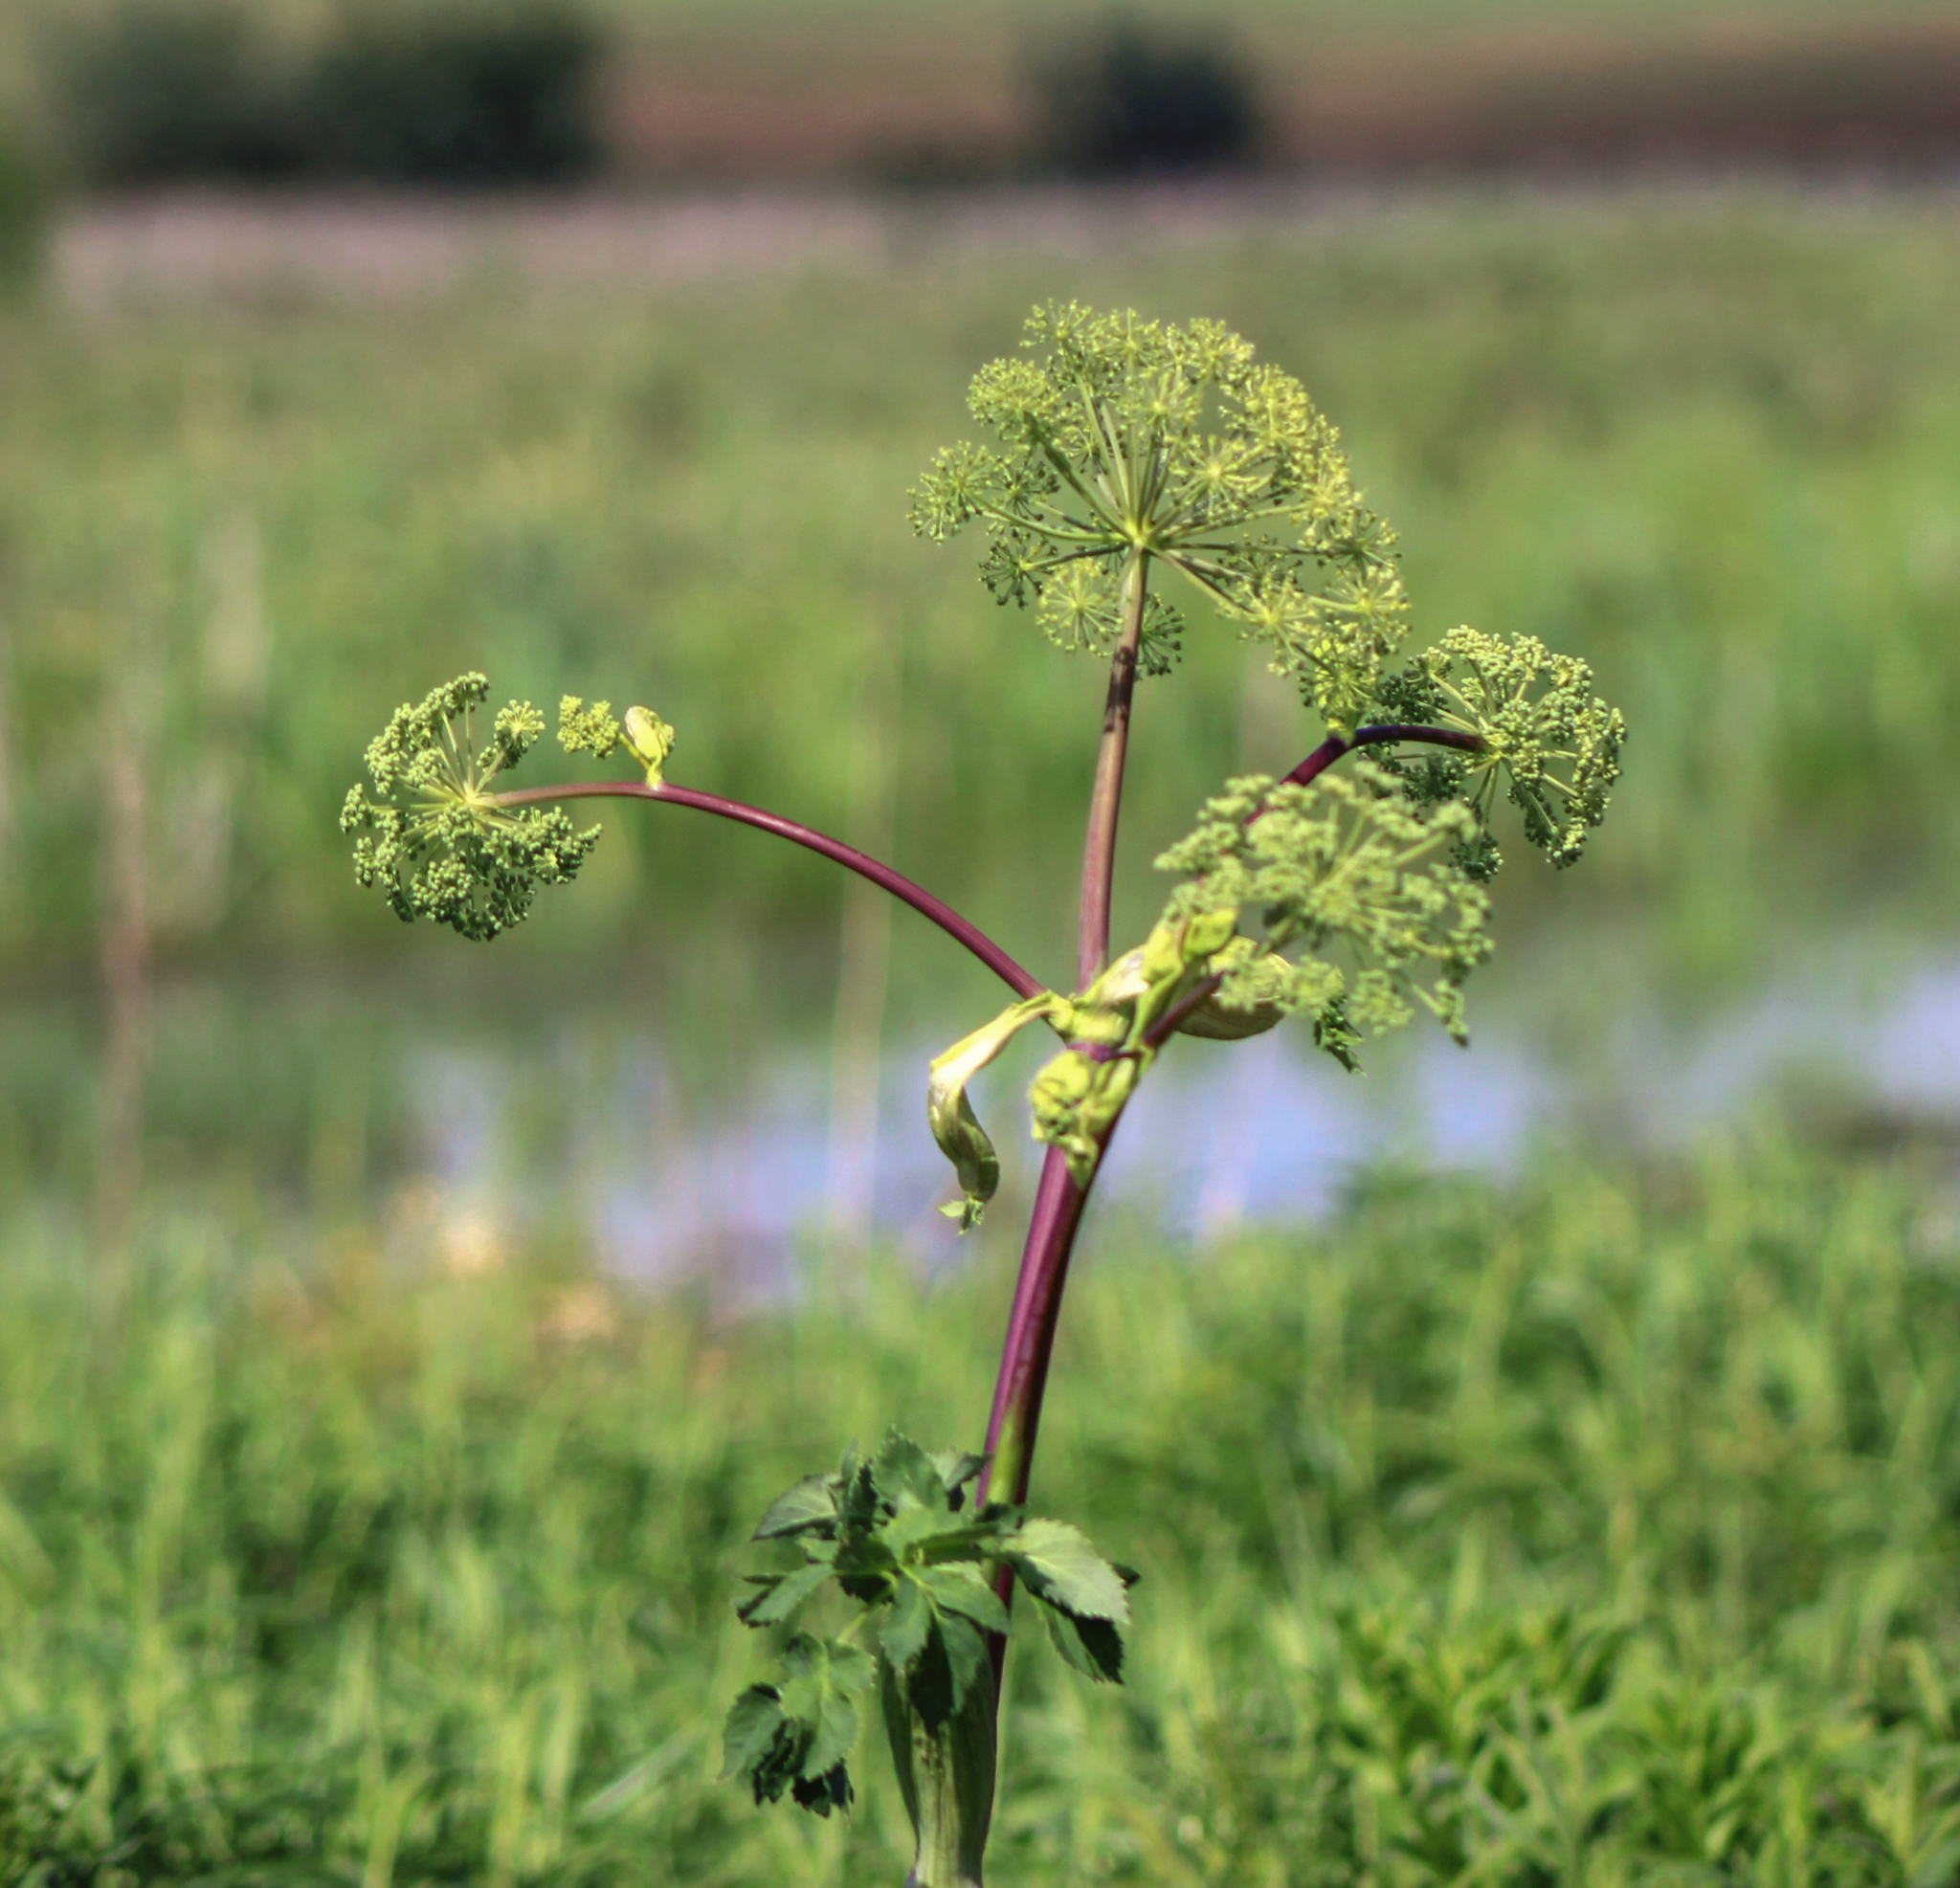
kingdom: Plantae
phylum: Tracheophyta
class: Magnoliopsida
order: Apiales
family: Apiaceae
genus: Angelica
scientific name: Angelica atropurpurea
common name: Great angelica
